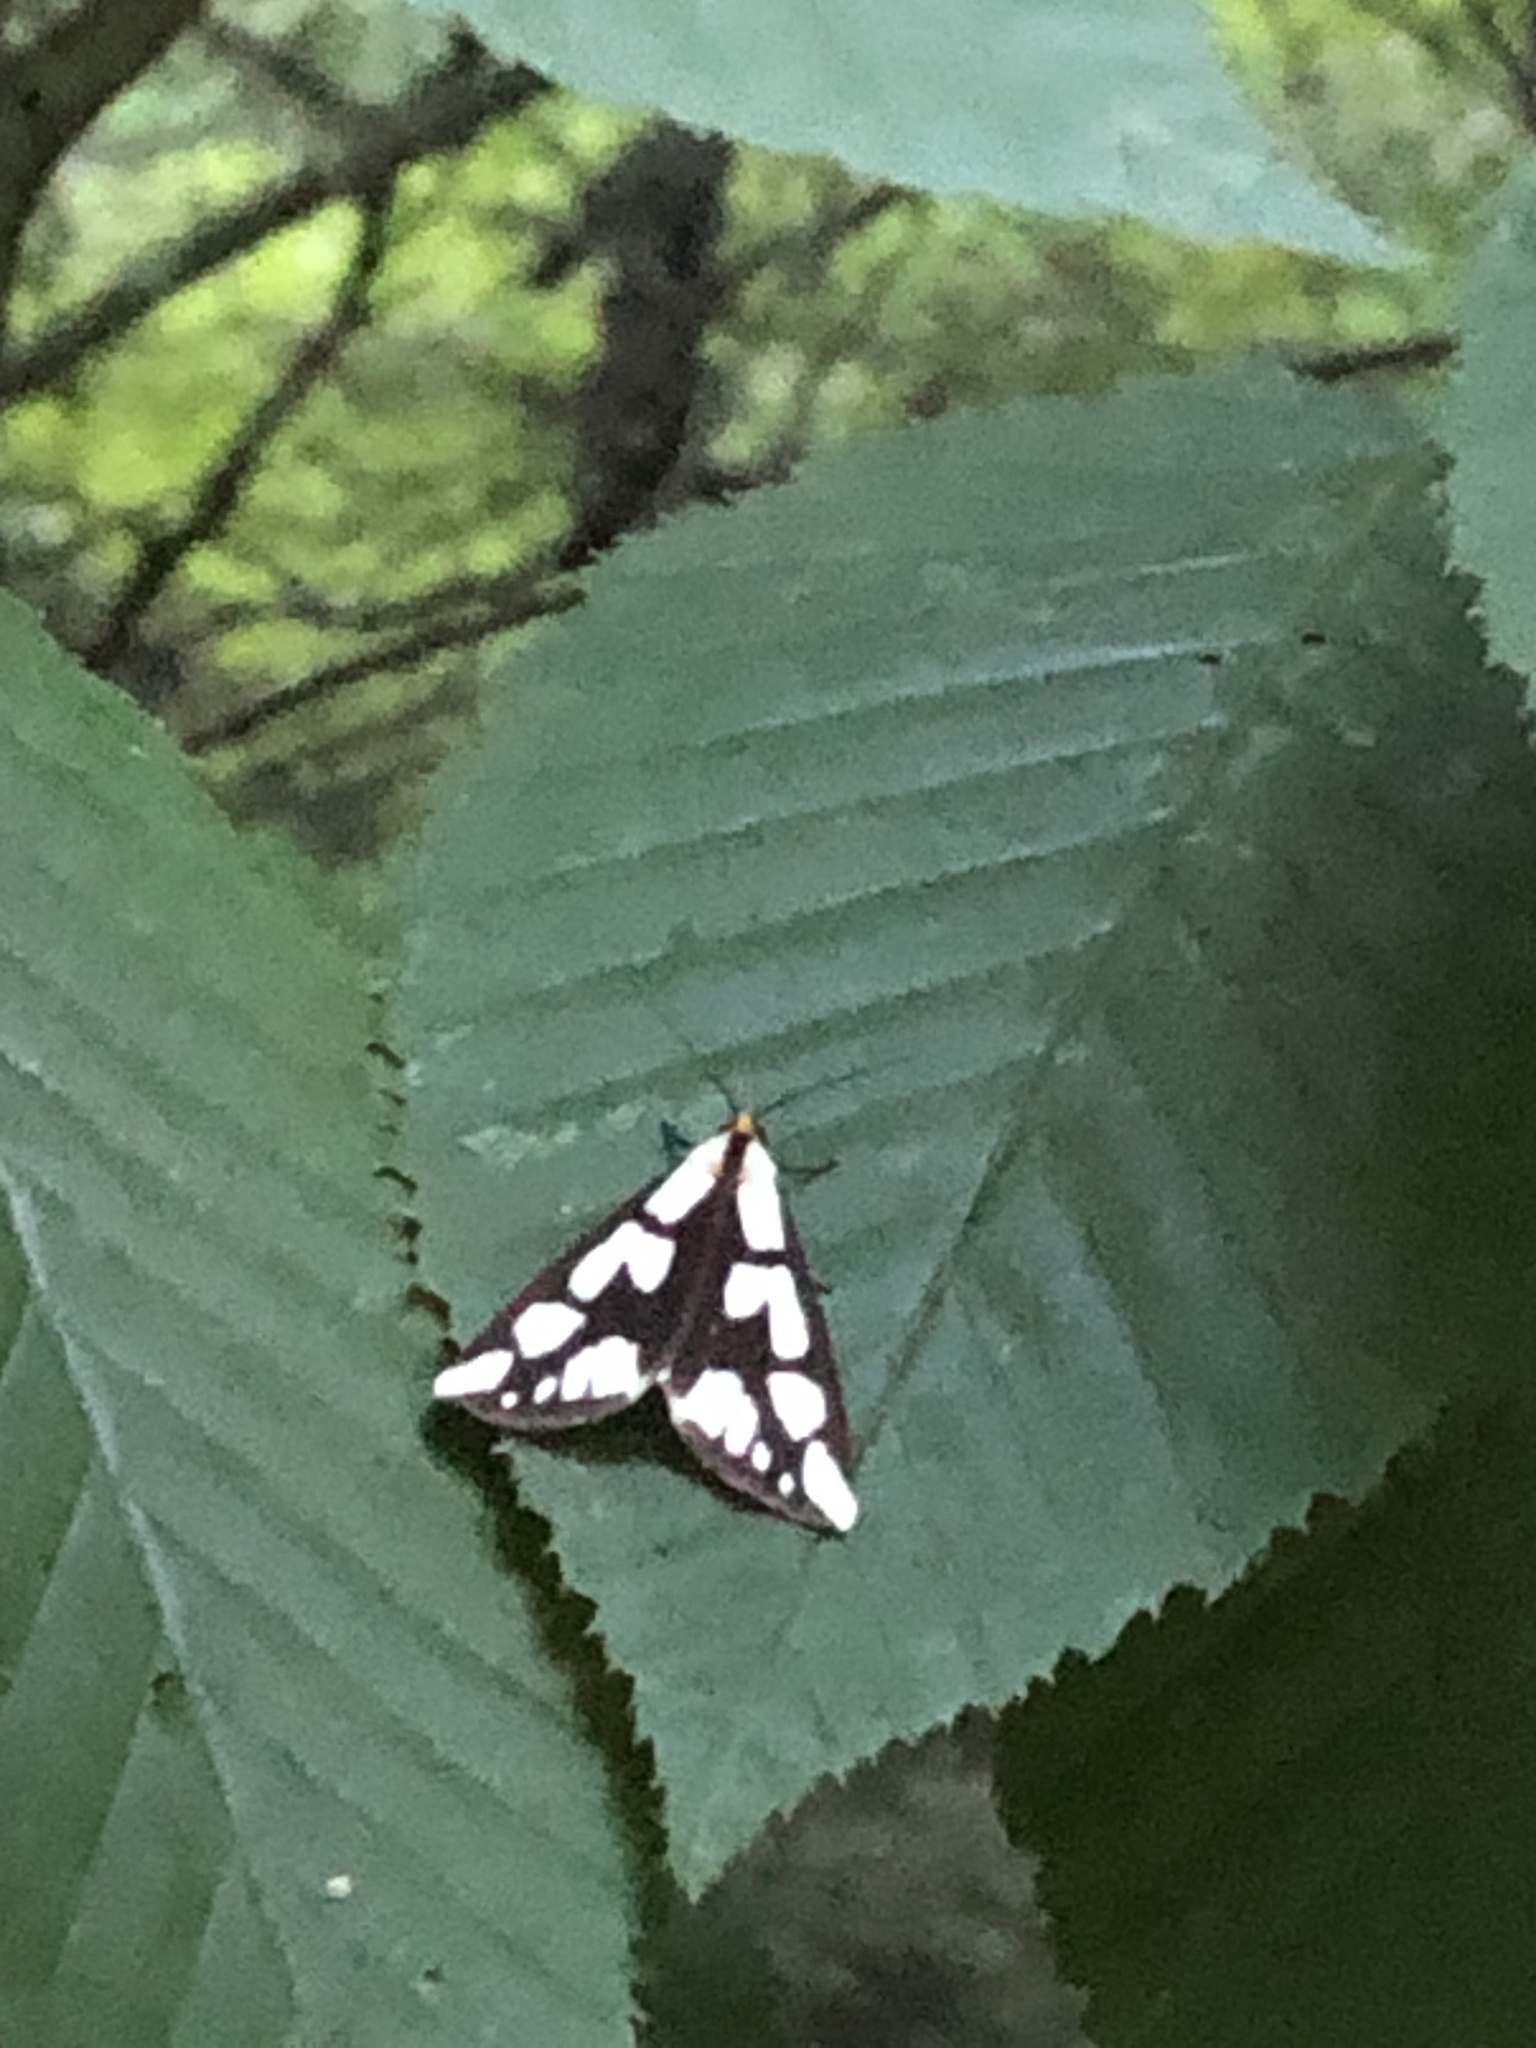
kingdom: Animalia
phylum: Arthropoda
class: Insecta
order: Lepidoptera
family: Erebidae
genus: Haploa
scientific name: Haploa confusa
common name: Confused haploa moth
